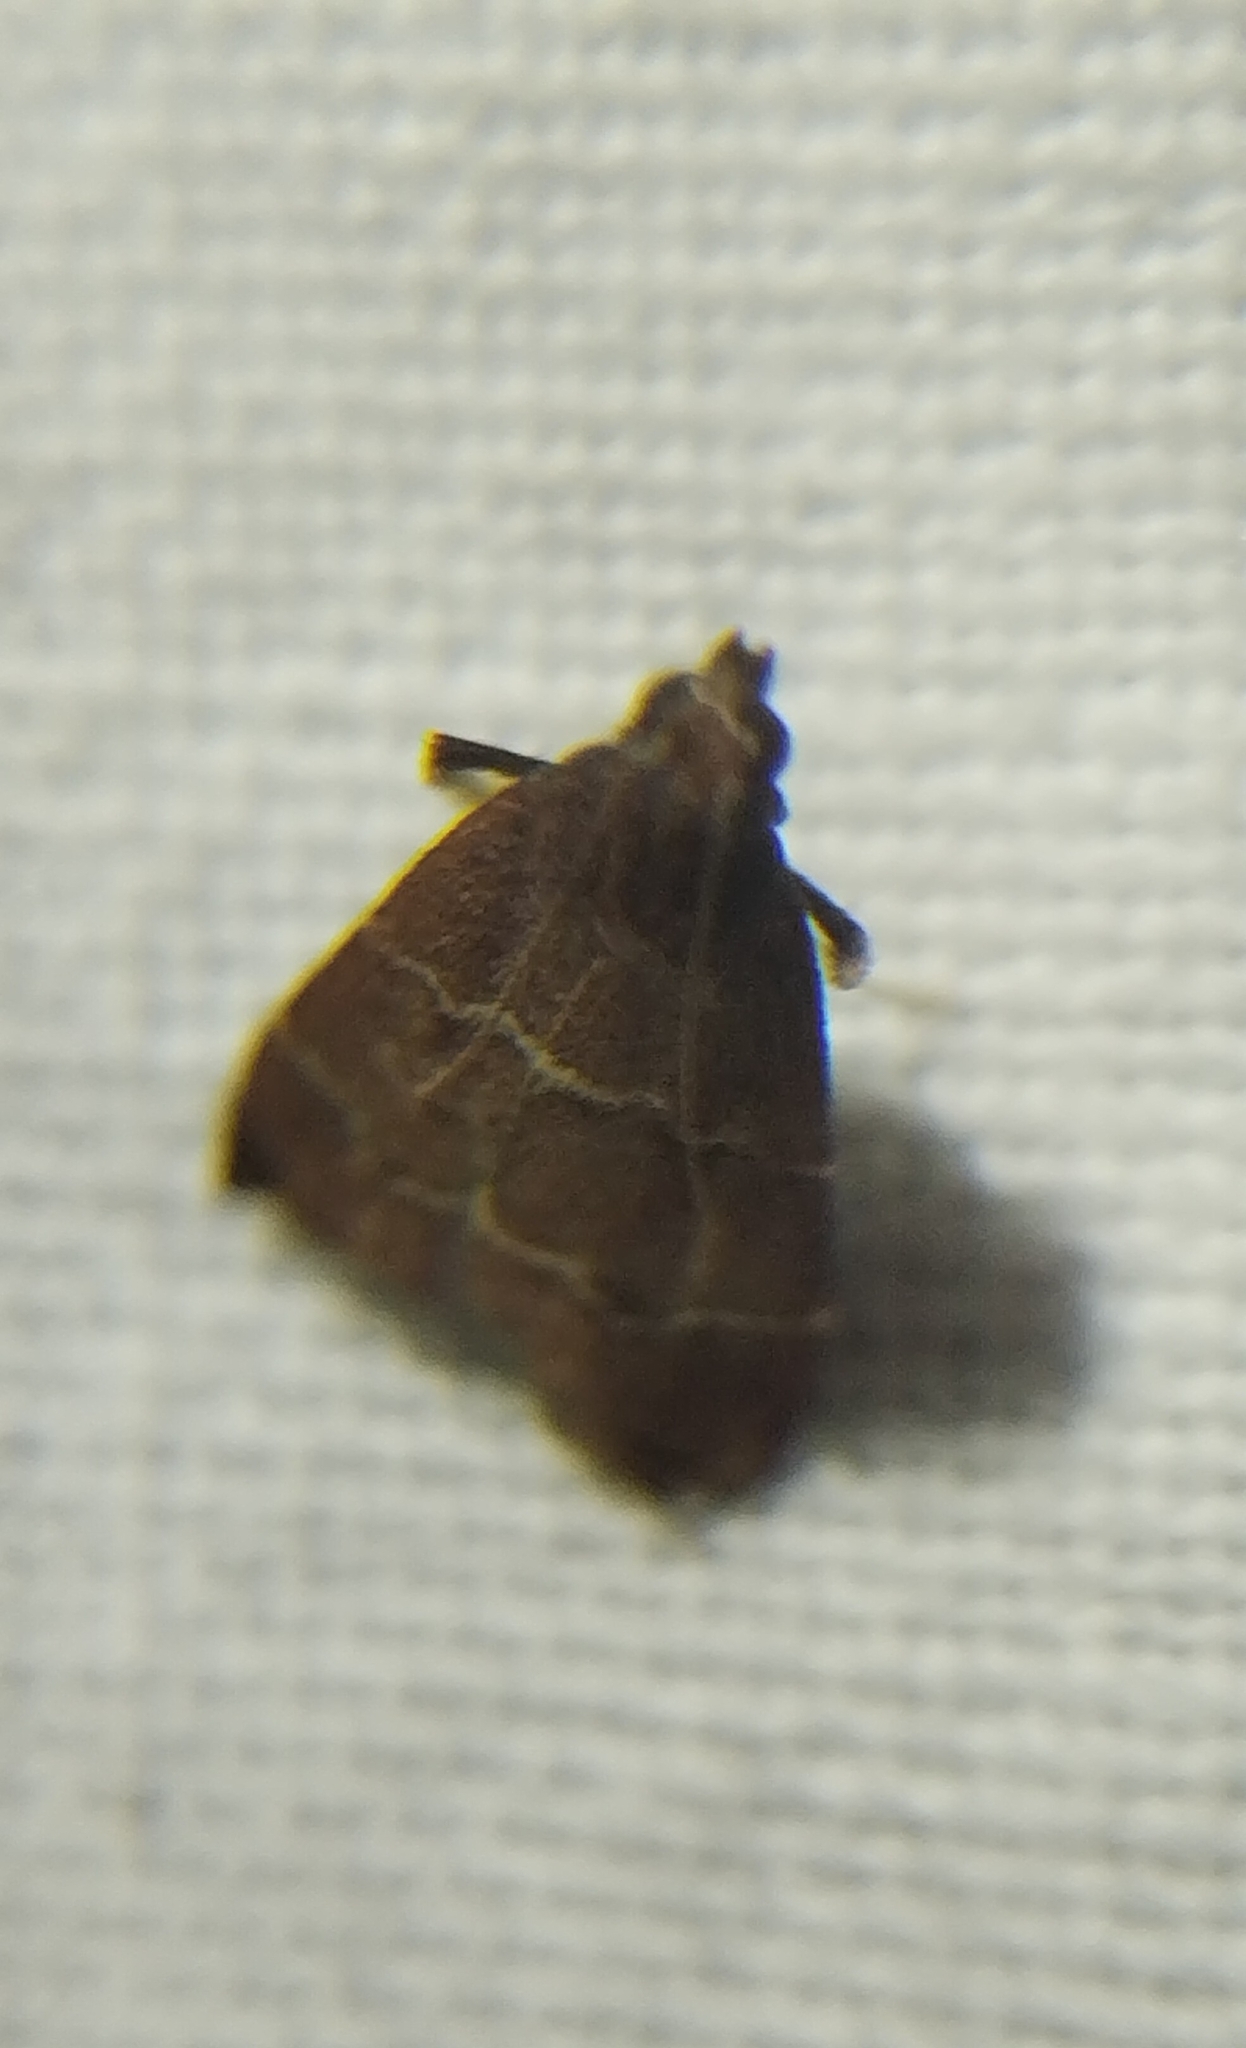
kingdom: Animalia
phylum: Arthropoda
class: Insecta
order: Lepidoptera
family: Pyralidae
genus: Arta
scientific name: Arta
